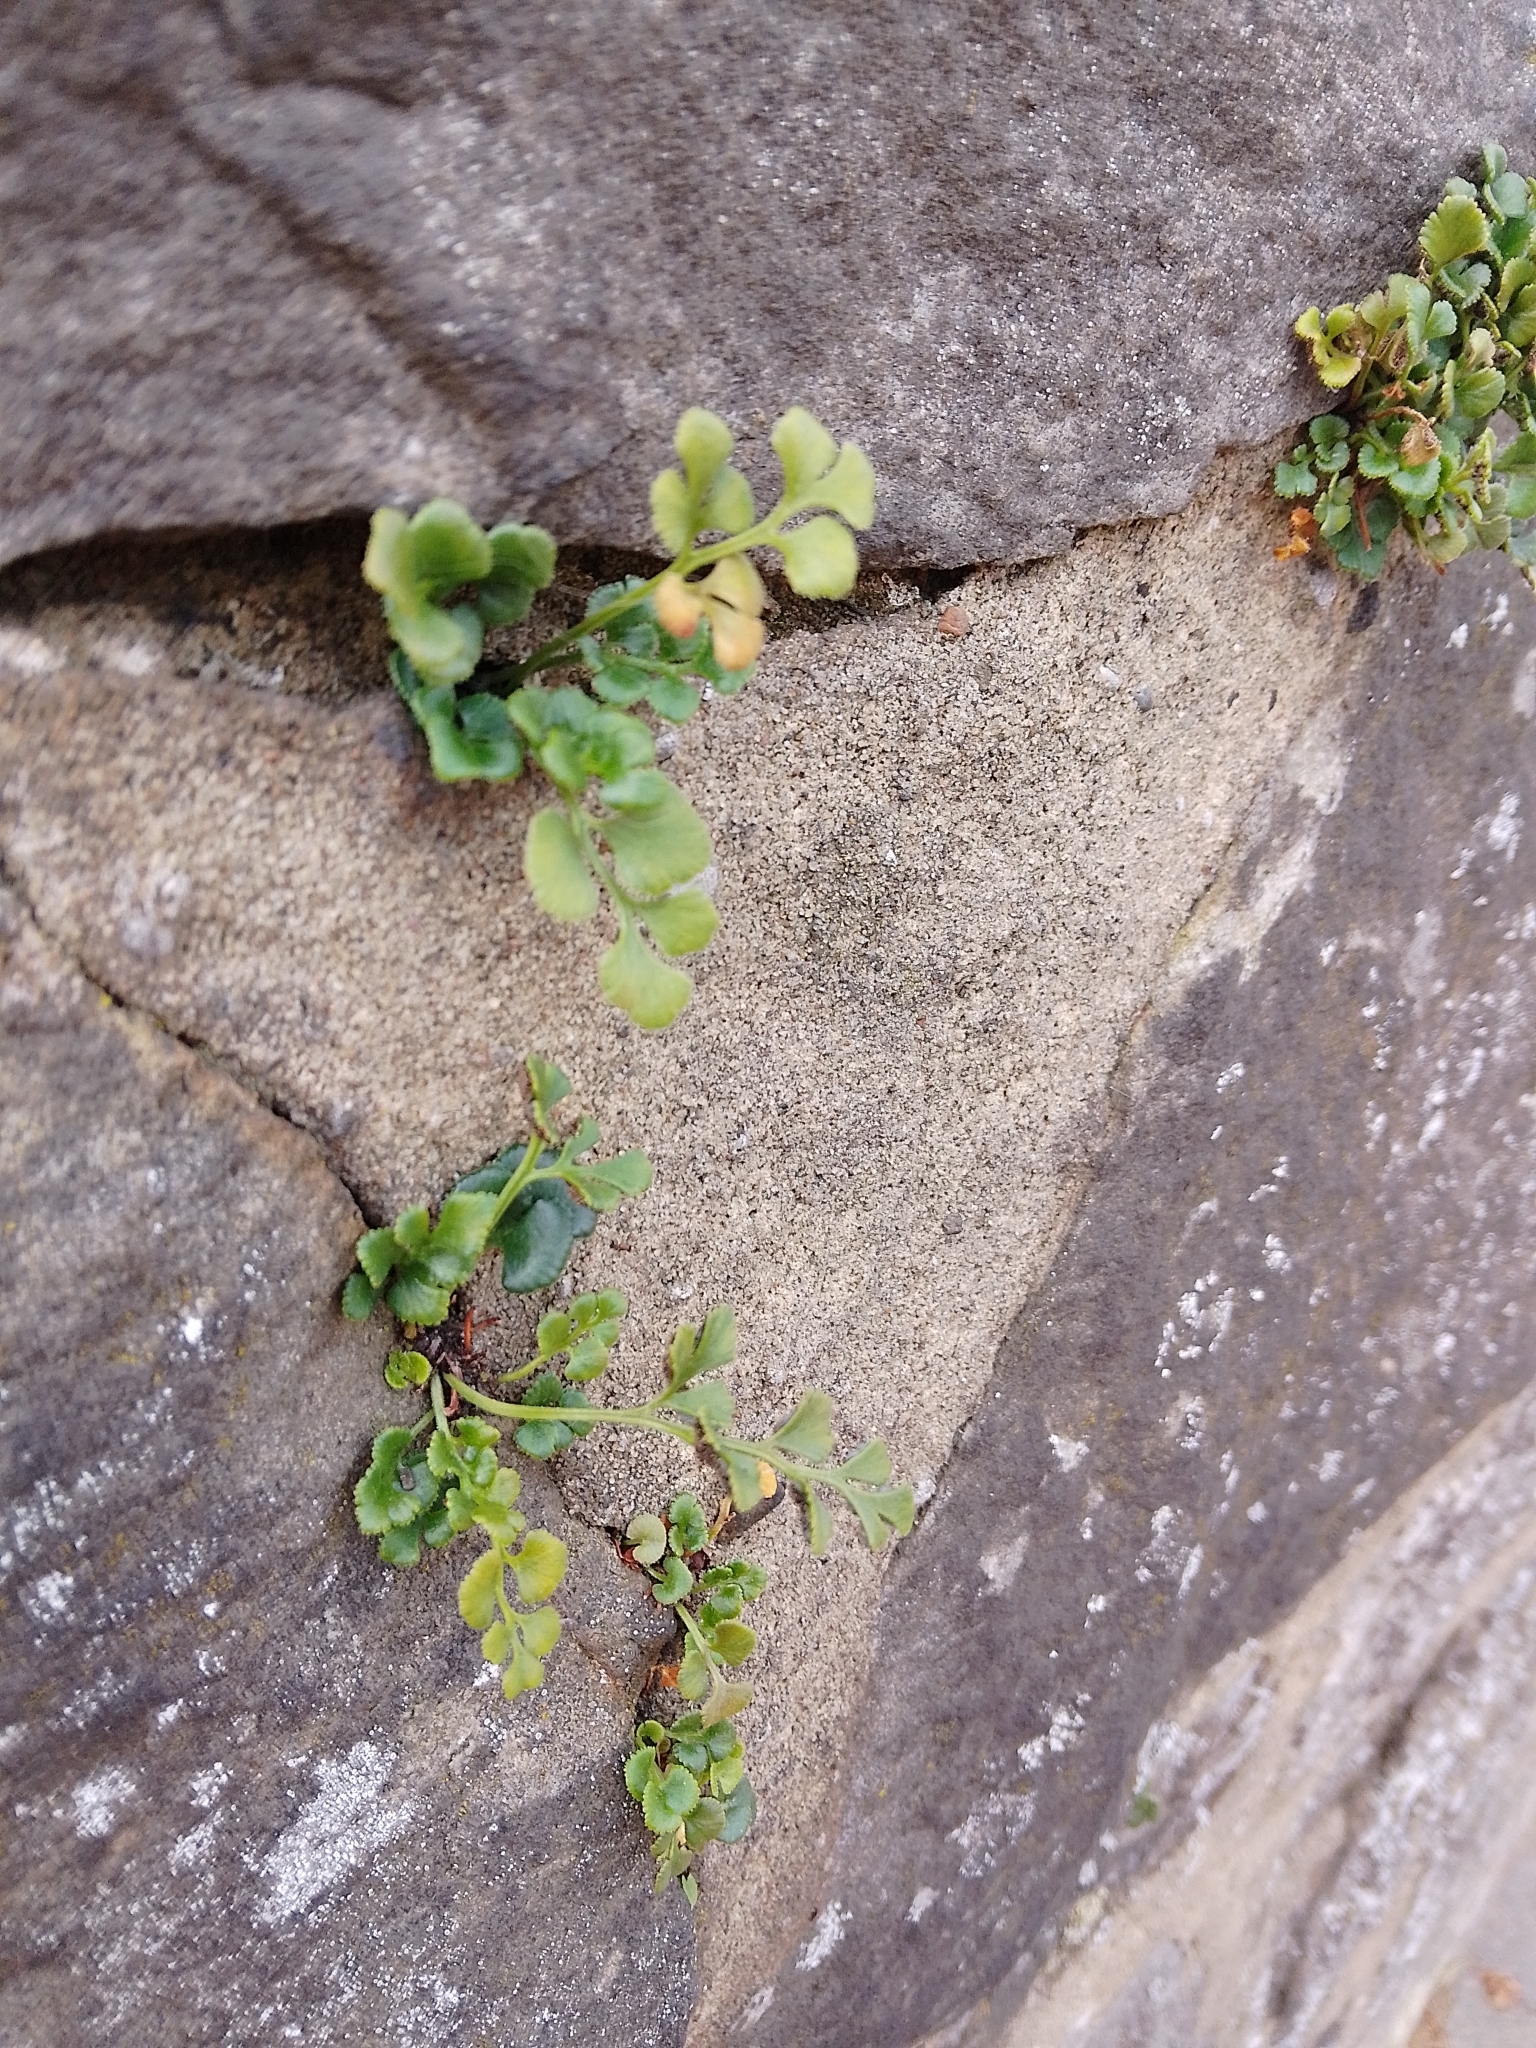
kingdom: Plantae
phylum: Tracheophyta
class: Polypodiopsida
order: Polypodiales
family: Aspleniaceae
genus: Asplenium
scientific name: Asplenium ruta-muraria
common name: Wall-rue
